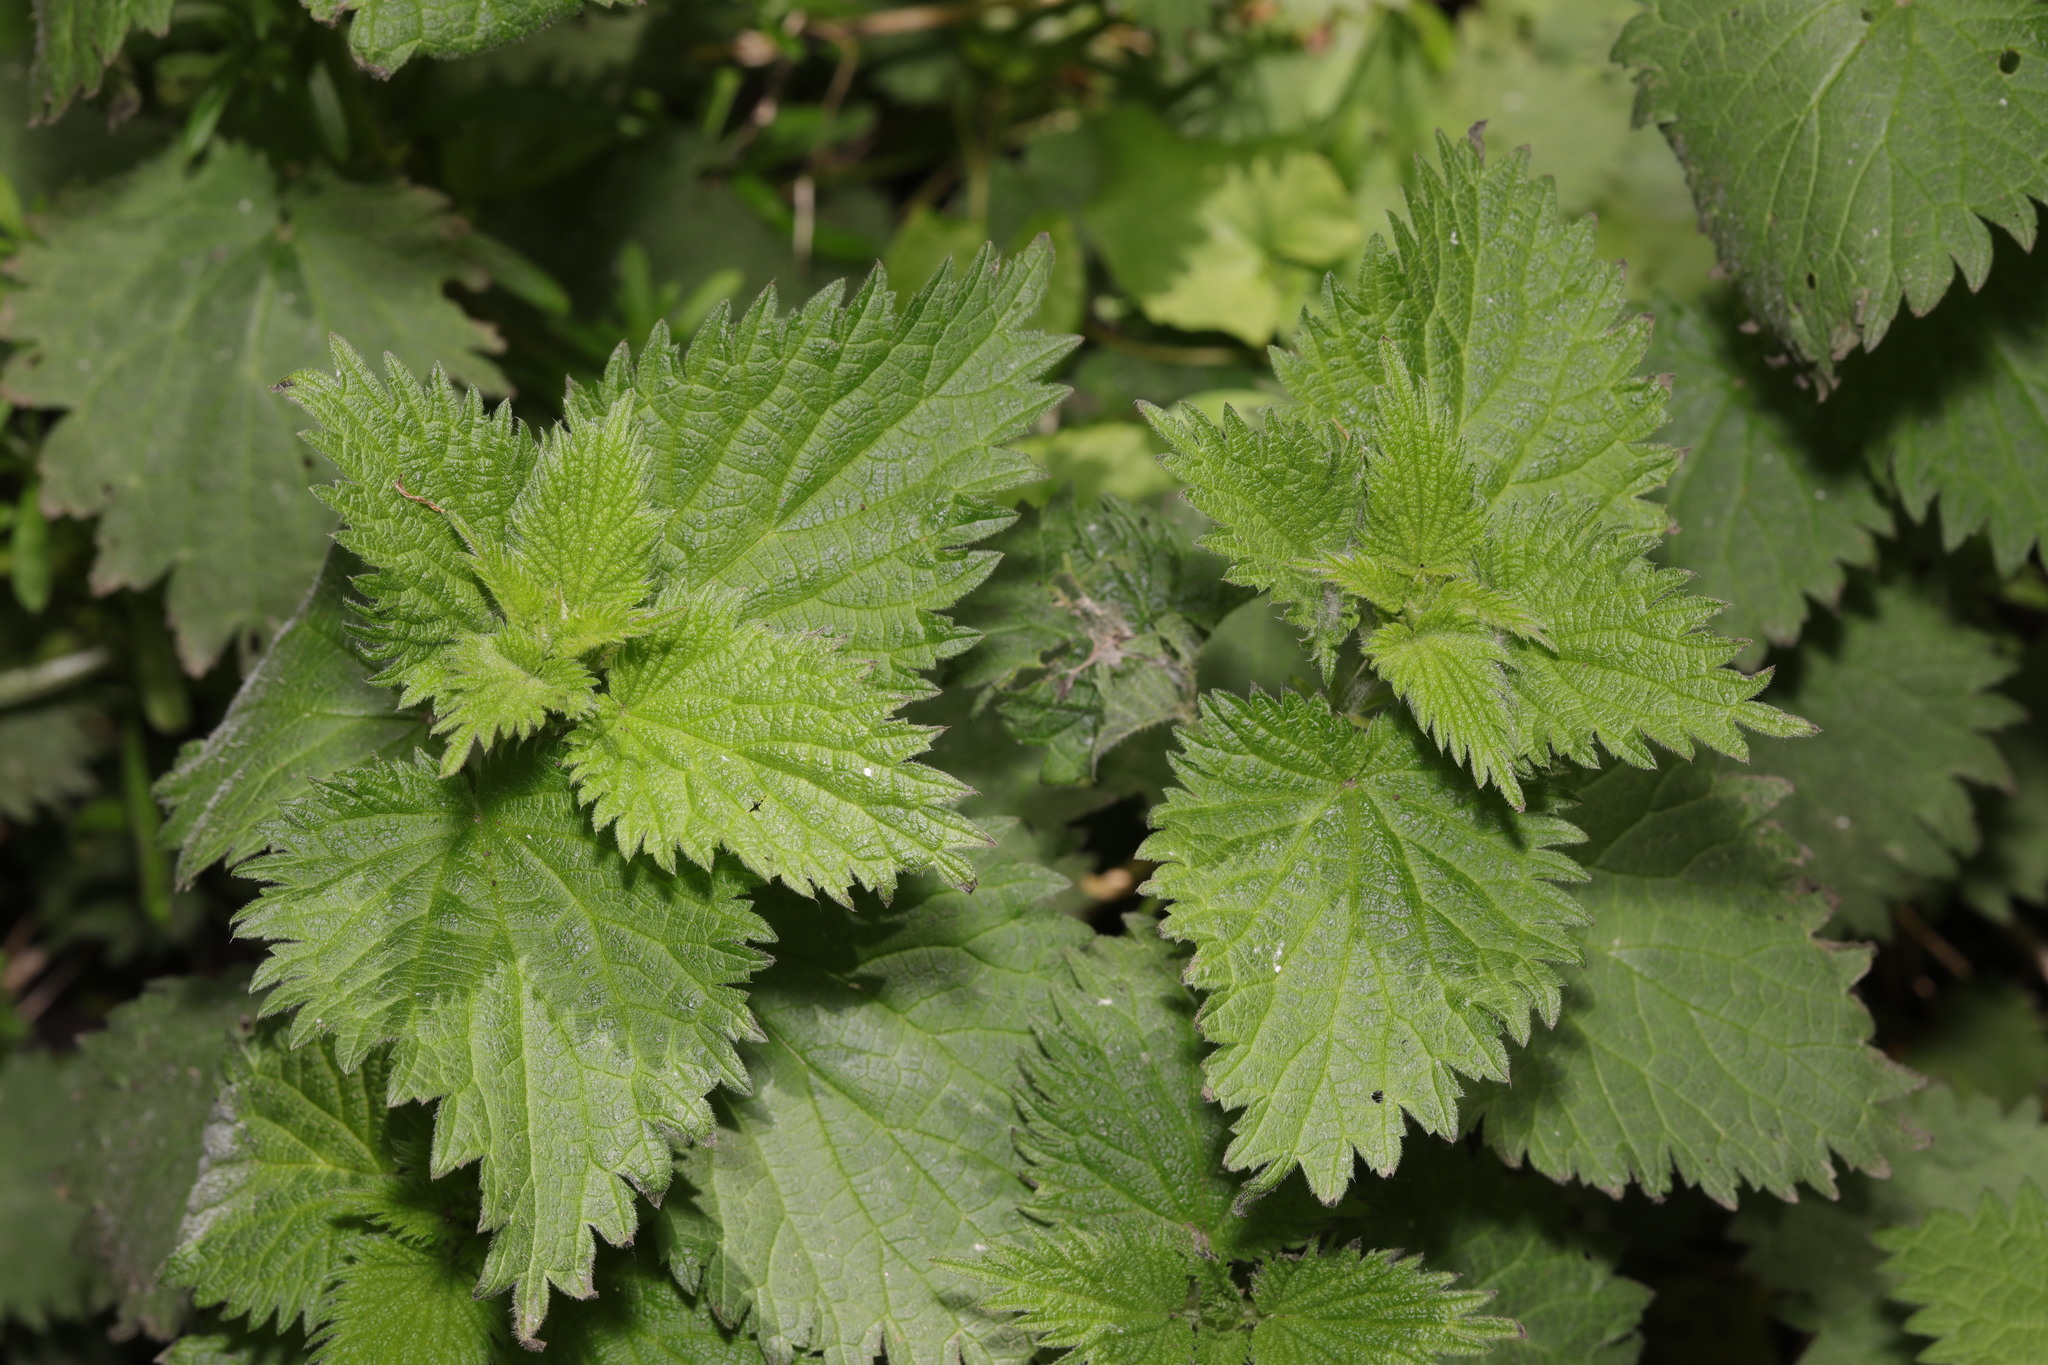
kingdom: Plantae
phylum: Tracheophyta
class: Magnoliopsida
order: Rosales
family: Urticaceae
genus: Urtica
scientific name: Urtica dioica
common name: Common nettle
